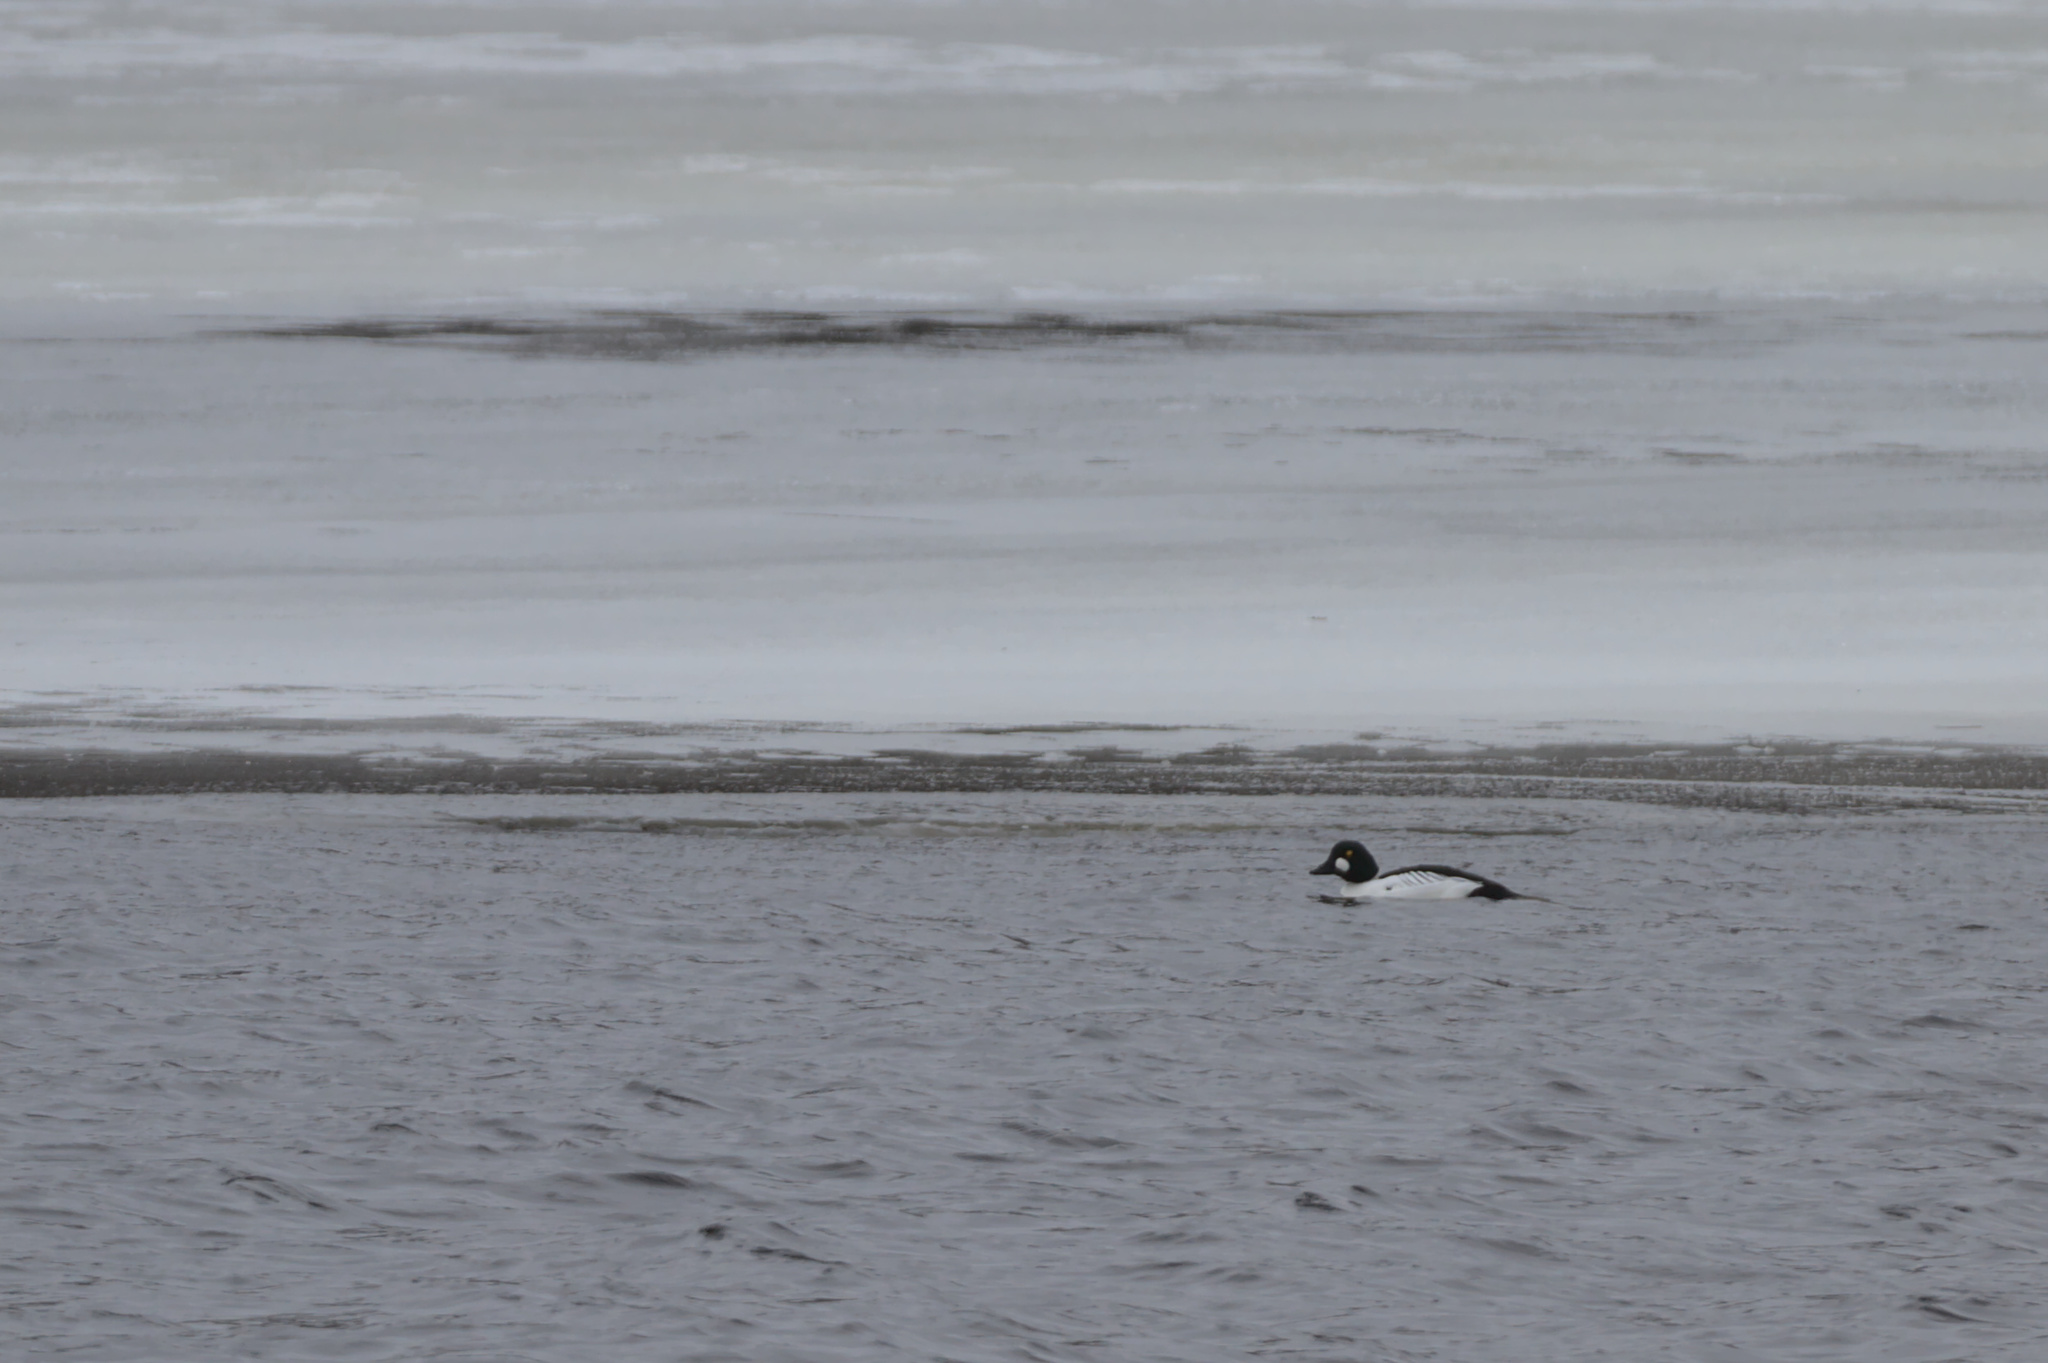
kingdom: Animalia
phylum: Chordata
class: Aves
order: Anseriformes
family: Anatidae
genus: Bucephala
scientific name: Bucephala clangula
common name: Common goldeneye
